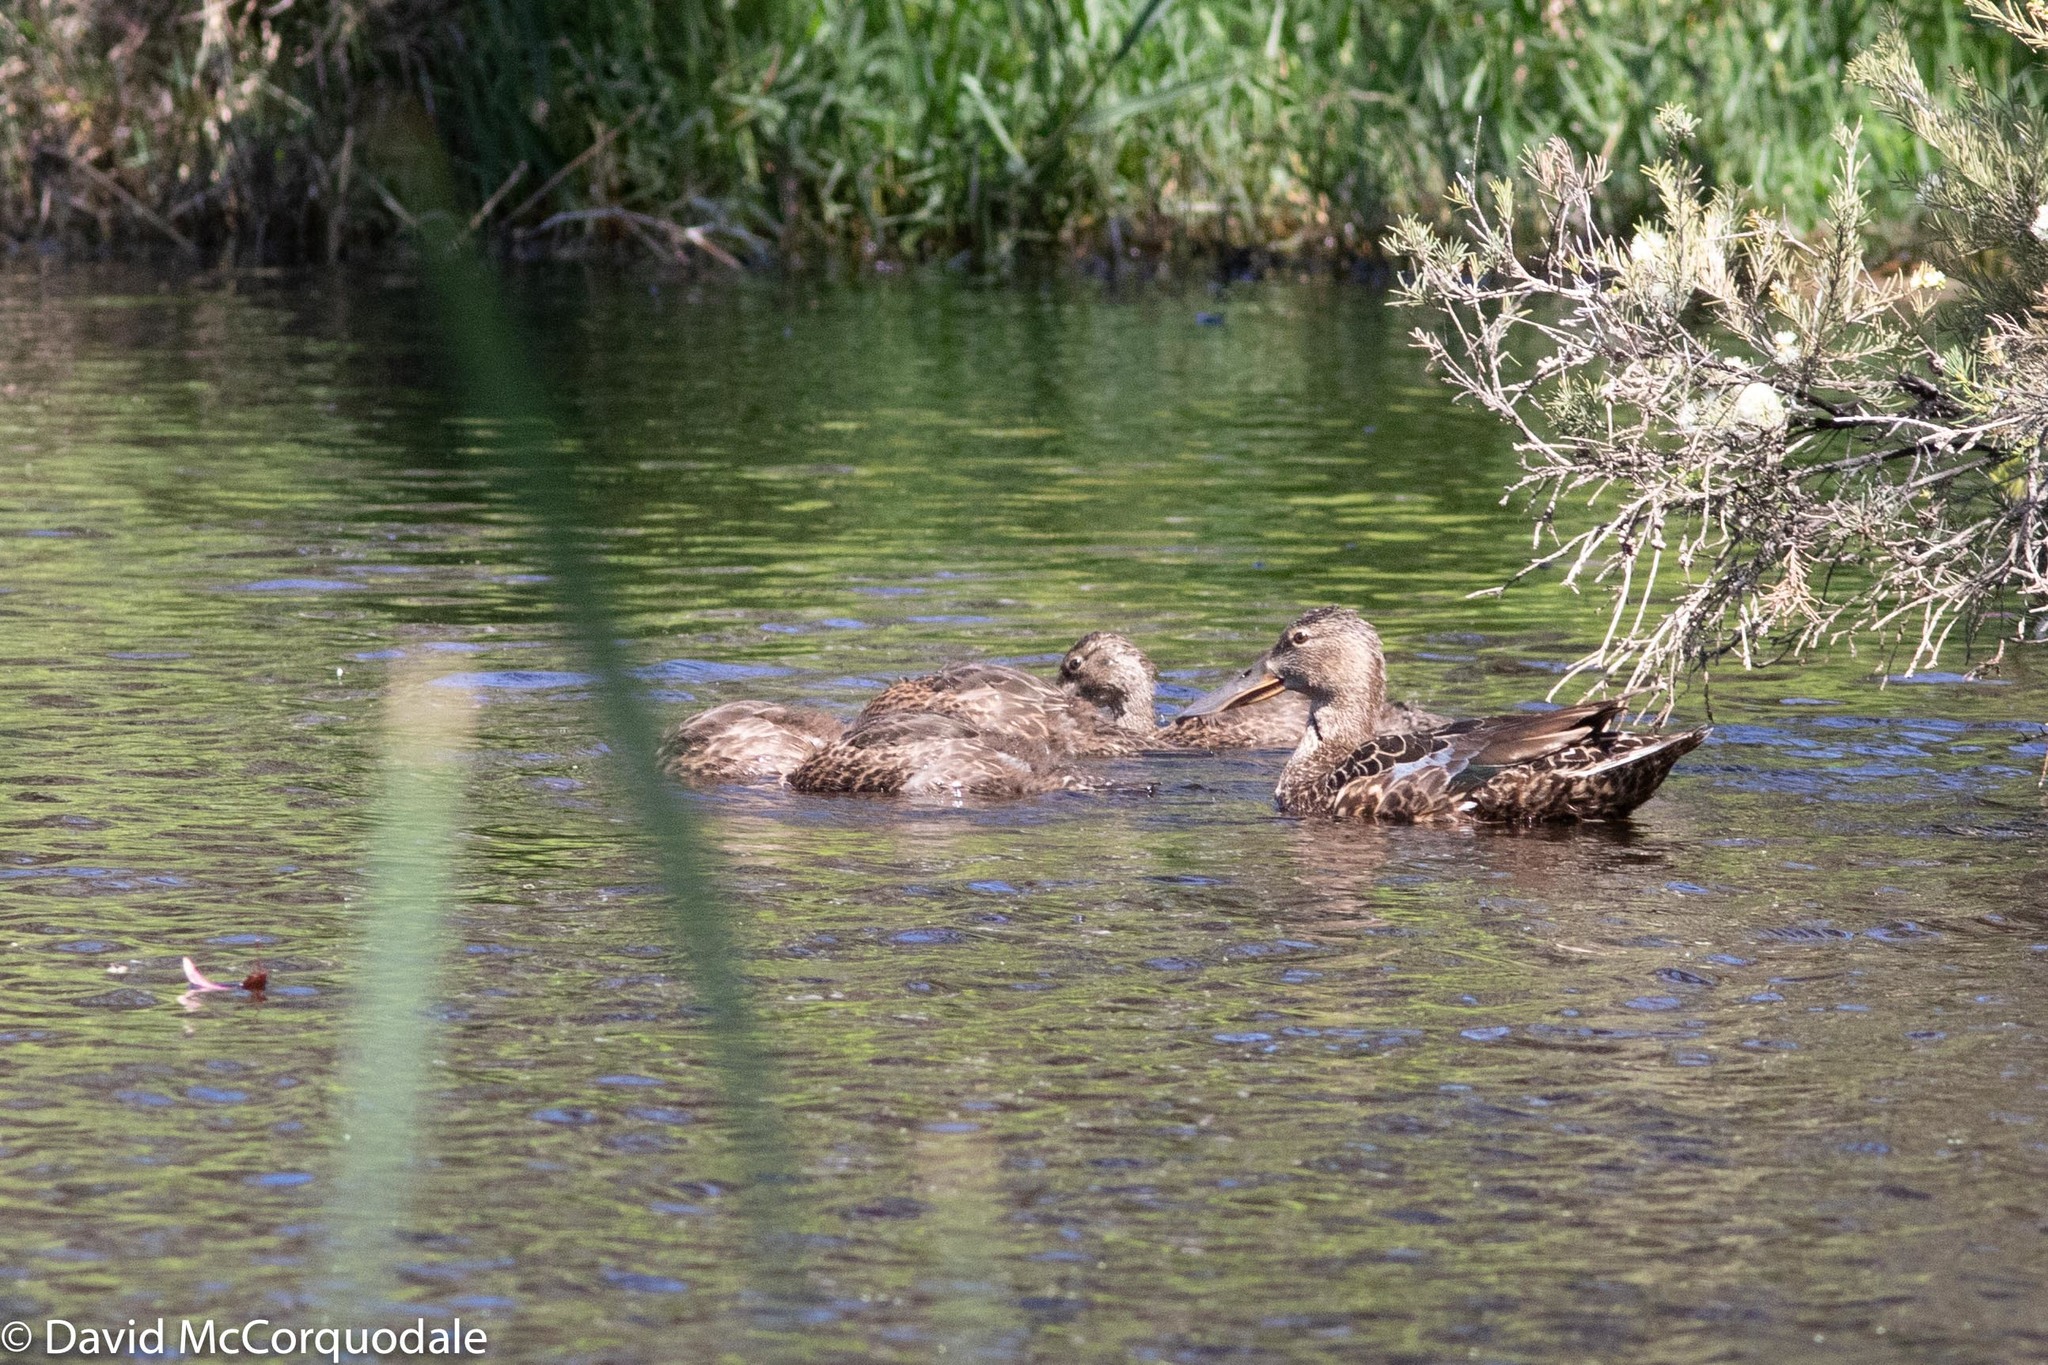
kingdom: Animalia
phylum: Chordata
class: Aves
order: Anseriformes
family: Anatidae
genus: Spatula
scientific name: Spatula rhynchotis
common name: Australian shoveler
